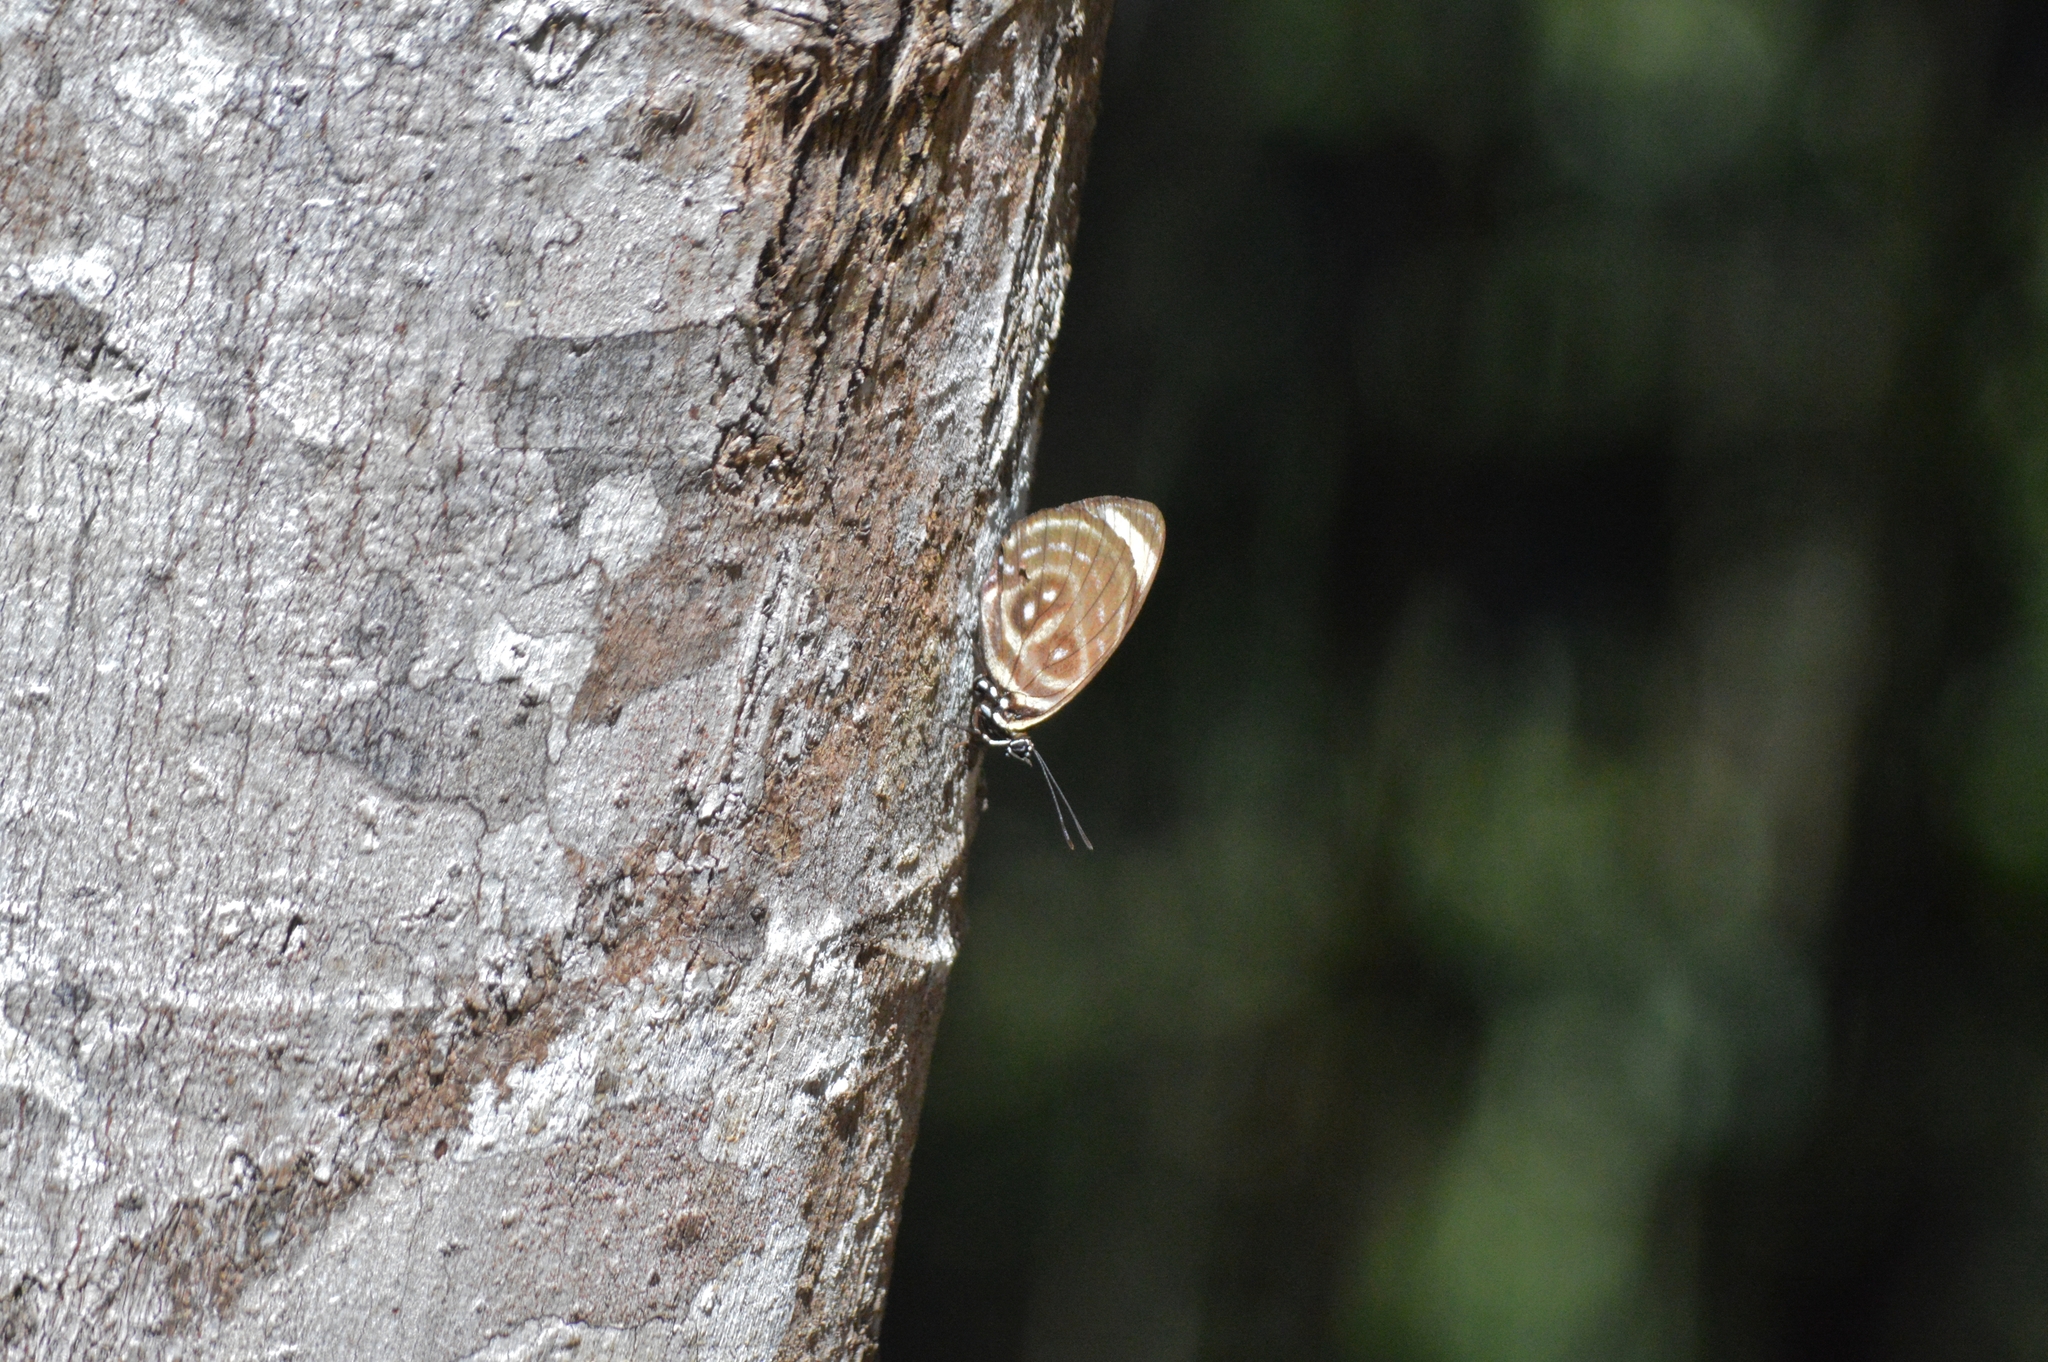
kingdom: Animalia
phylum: Arthropoda
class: Insecta
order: Lepidoptera
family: Nymphalidae
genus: Catagramma
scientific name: Catagramma astarte
